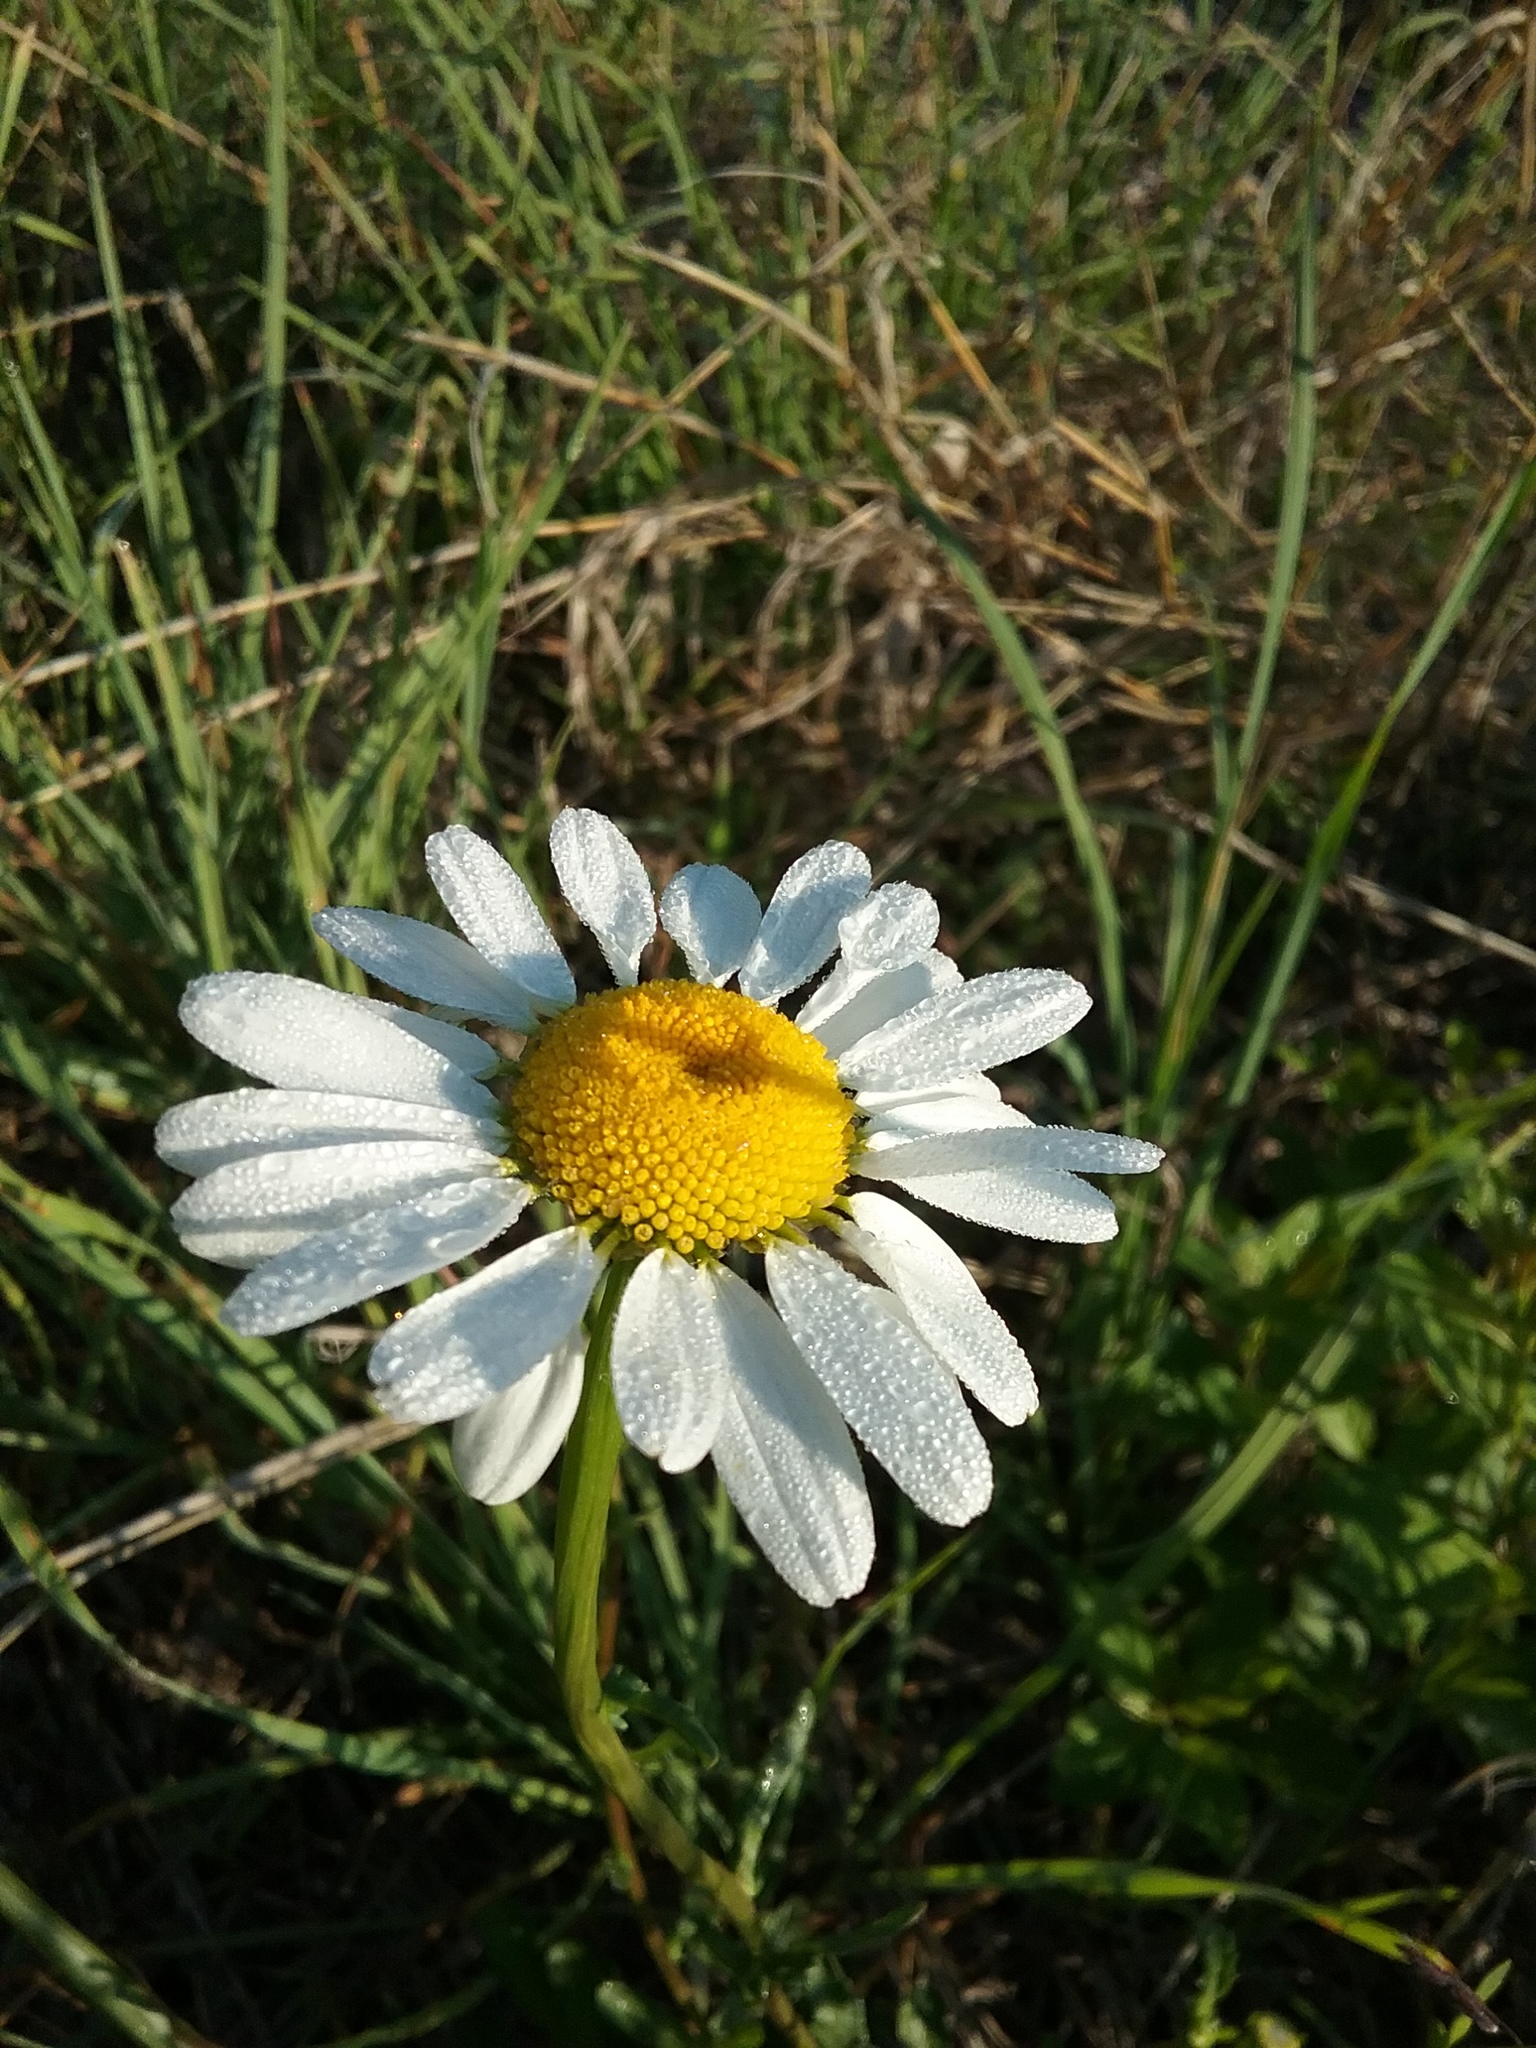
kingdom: Plantae
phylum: Tracheophyta
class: Magnoliopsida
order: Asterales
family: Asteraceae
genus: Leucanthemum
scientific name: Leucanthemum vulgare
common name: Oxeye daisy
